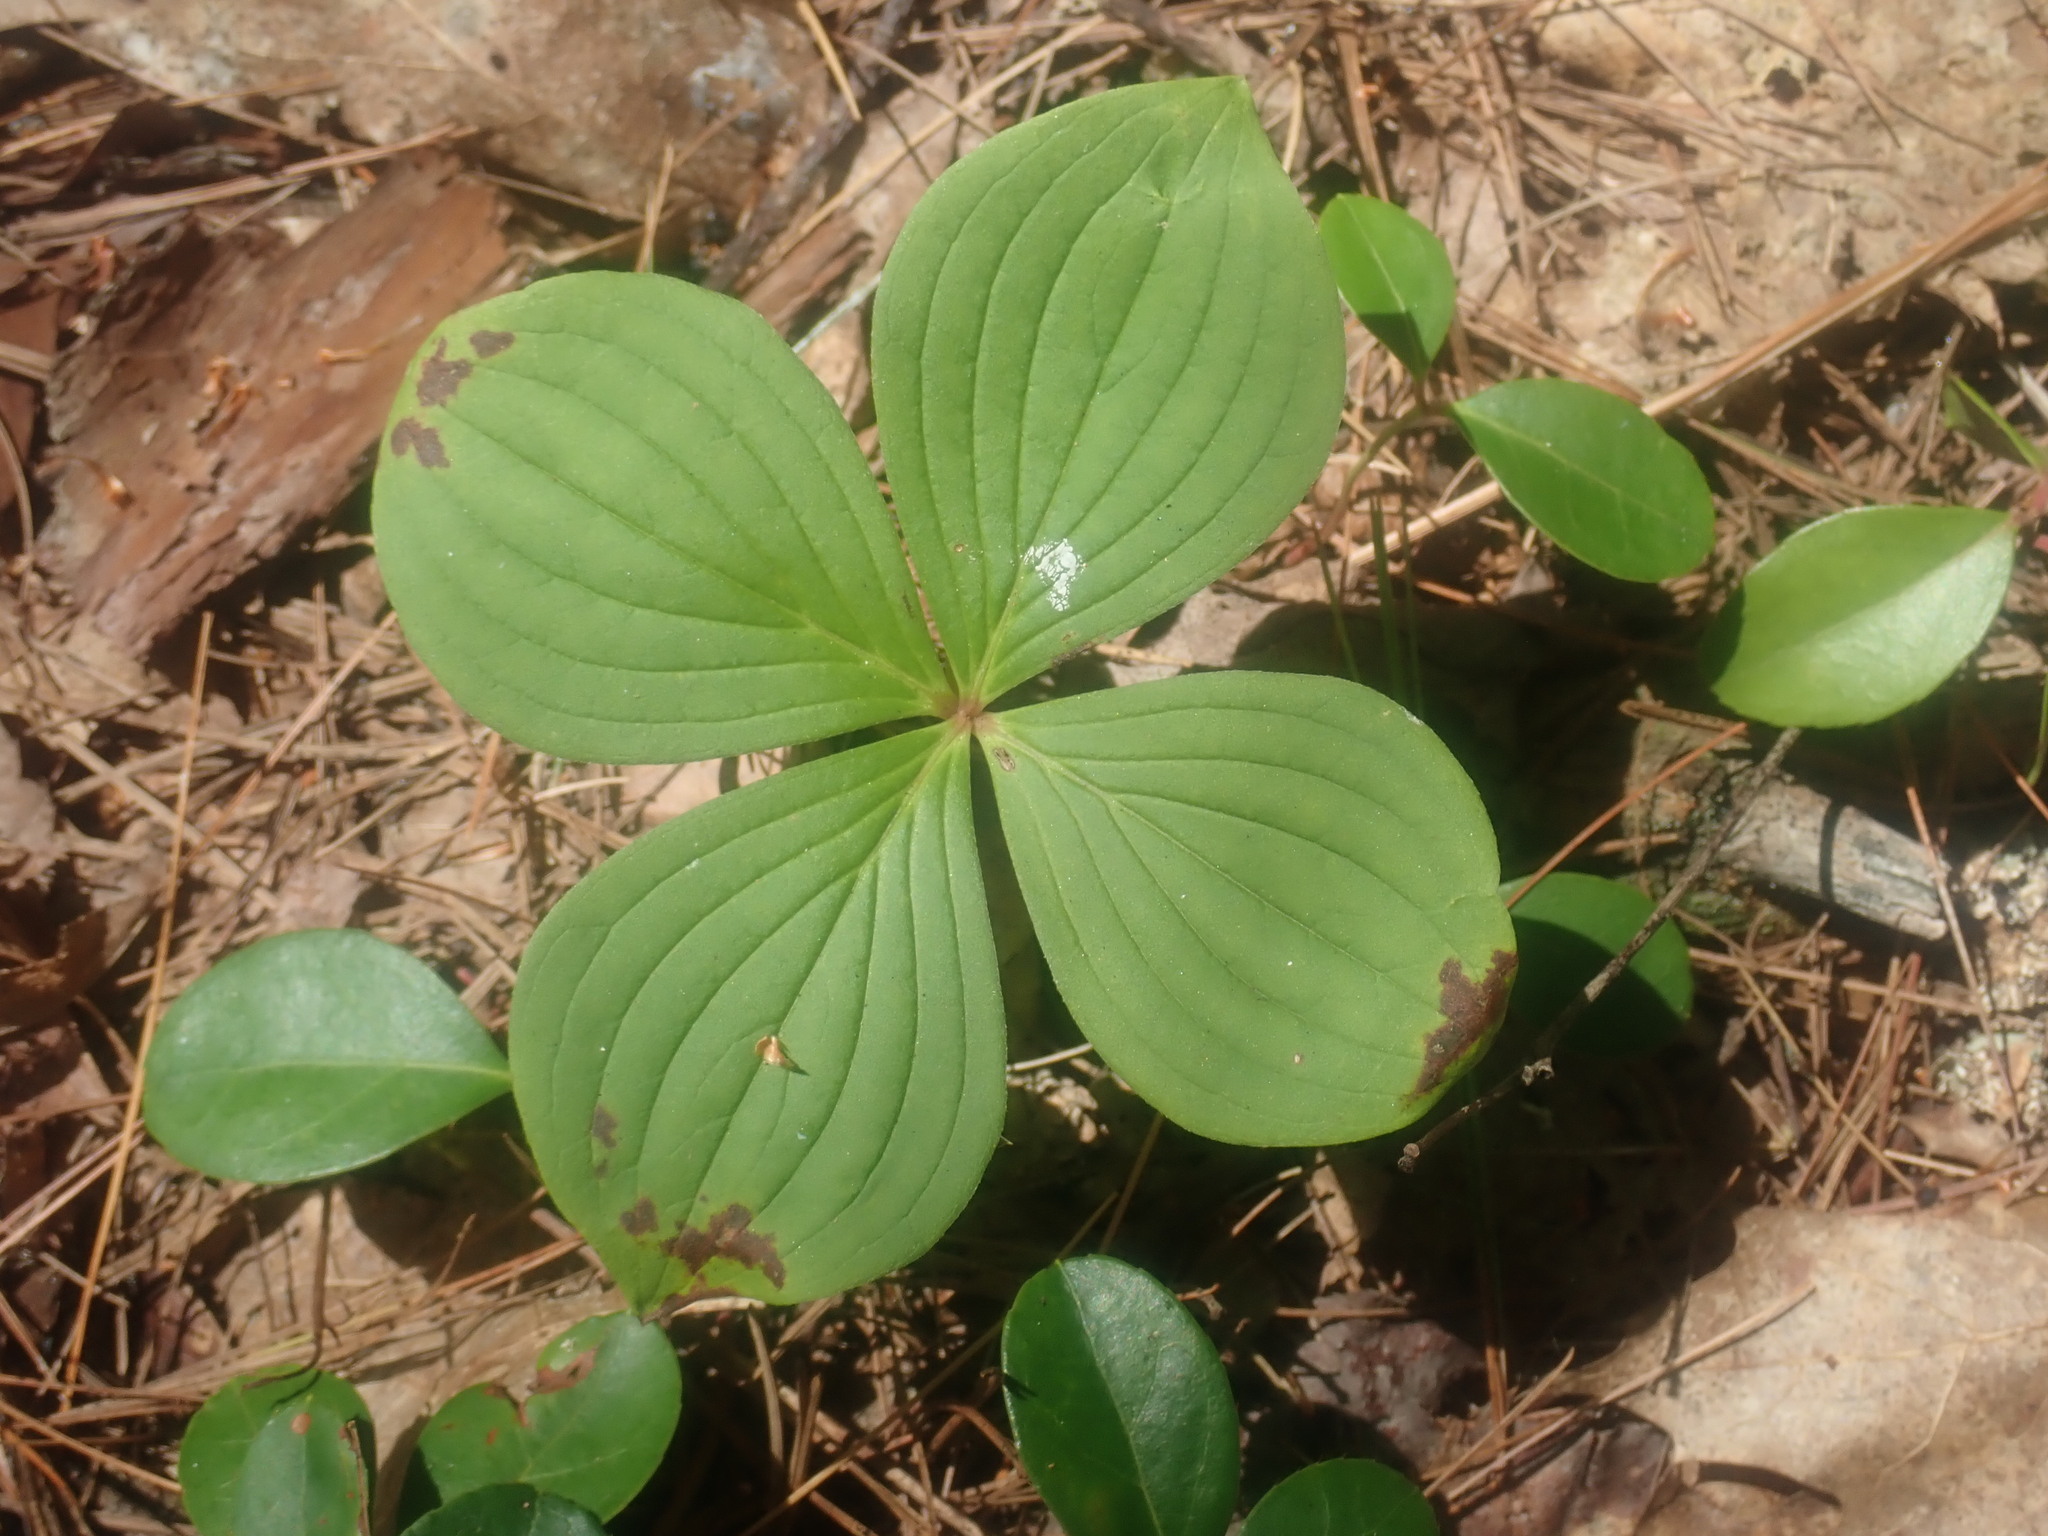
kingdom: Plantae
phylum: Tracheophyta
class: Magnoliopsida
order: Cornales
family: Cornaceae
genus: Cornus
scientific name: Cornus canadensis
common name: Creeping dogwood
